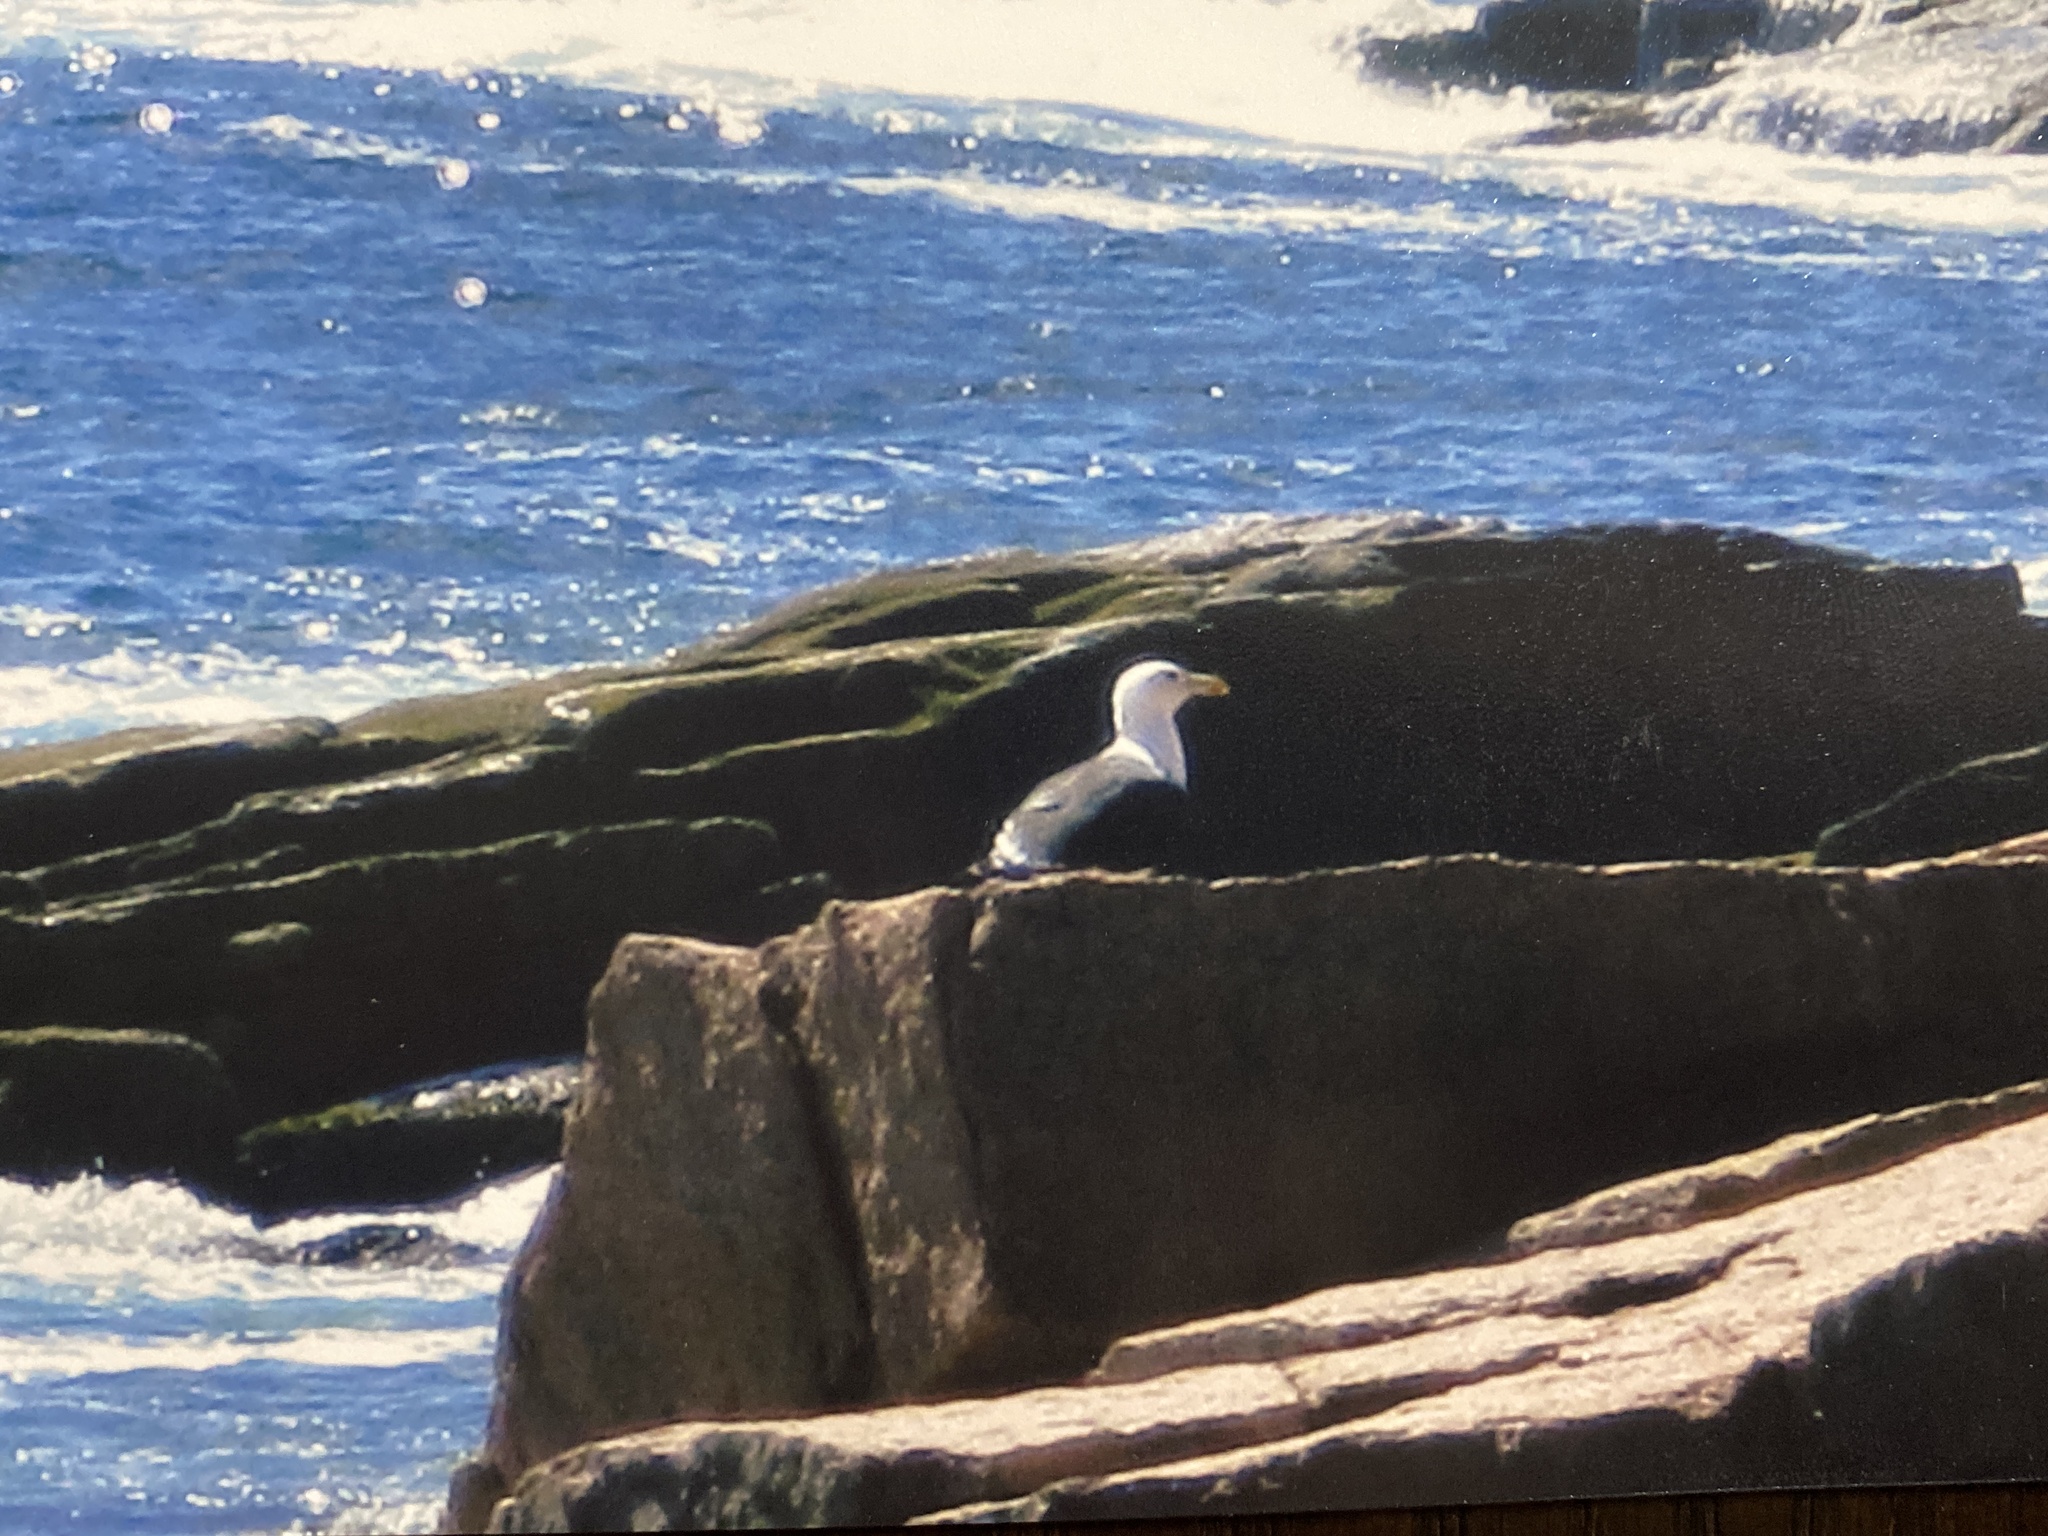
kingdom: Animalia
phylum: Chordata
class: Aves
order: Charadriiformes
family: Laridae
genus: Larus
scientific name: Larus marinus
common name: Great black-backed gull
